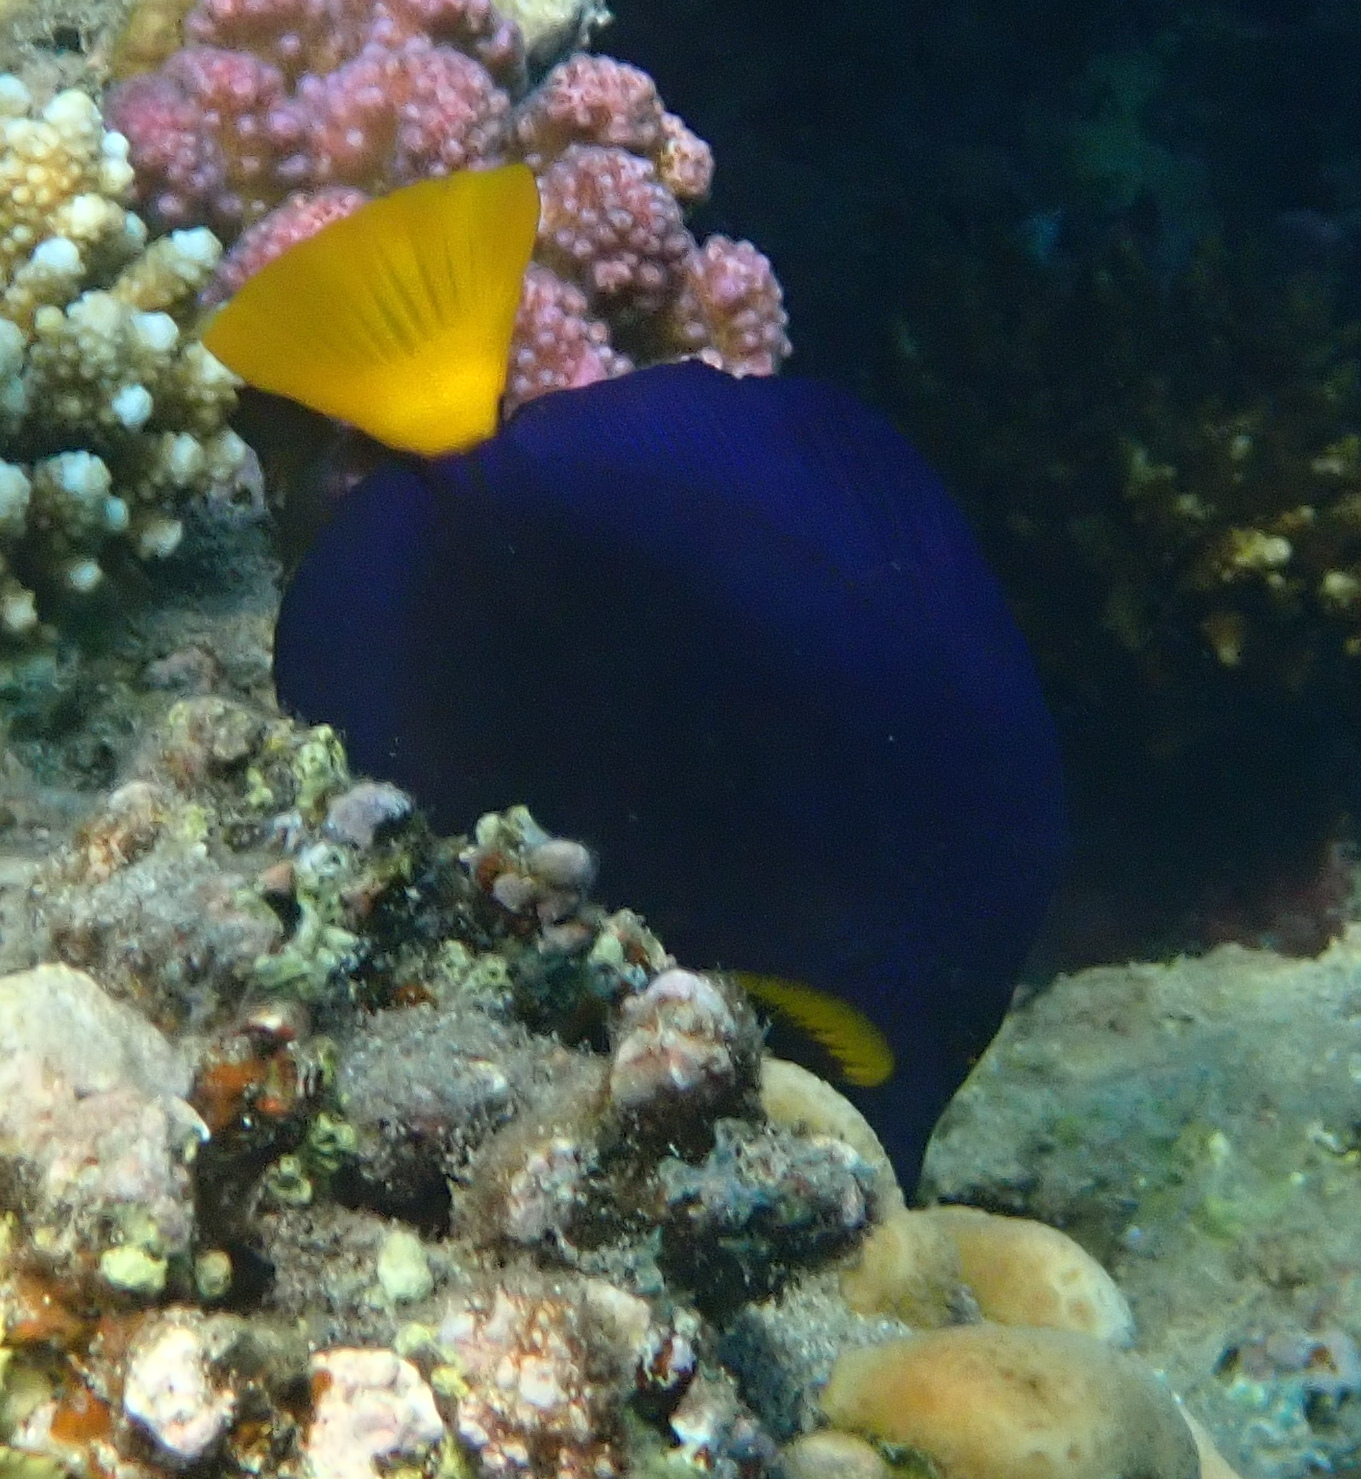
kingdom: Animalia
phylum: Chordata
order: Perciformes
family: Acanthuridae
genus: Zebrasoma
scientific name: Zebrasoma xanthurum
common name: Purple tang
